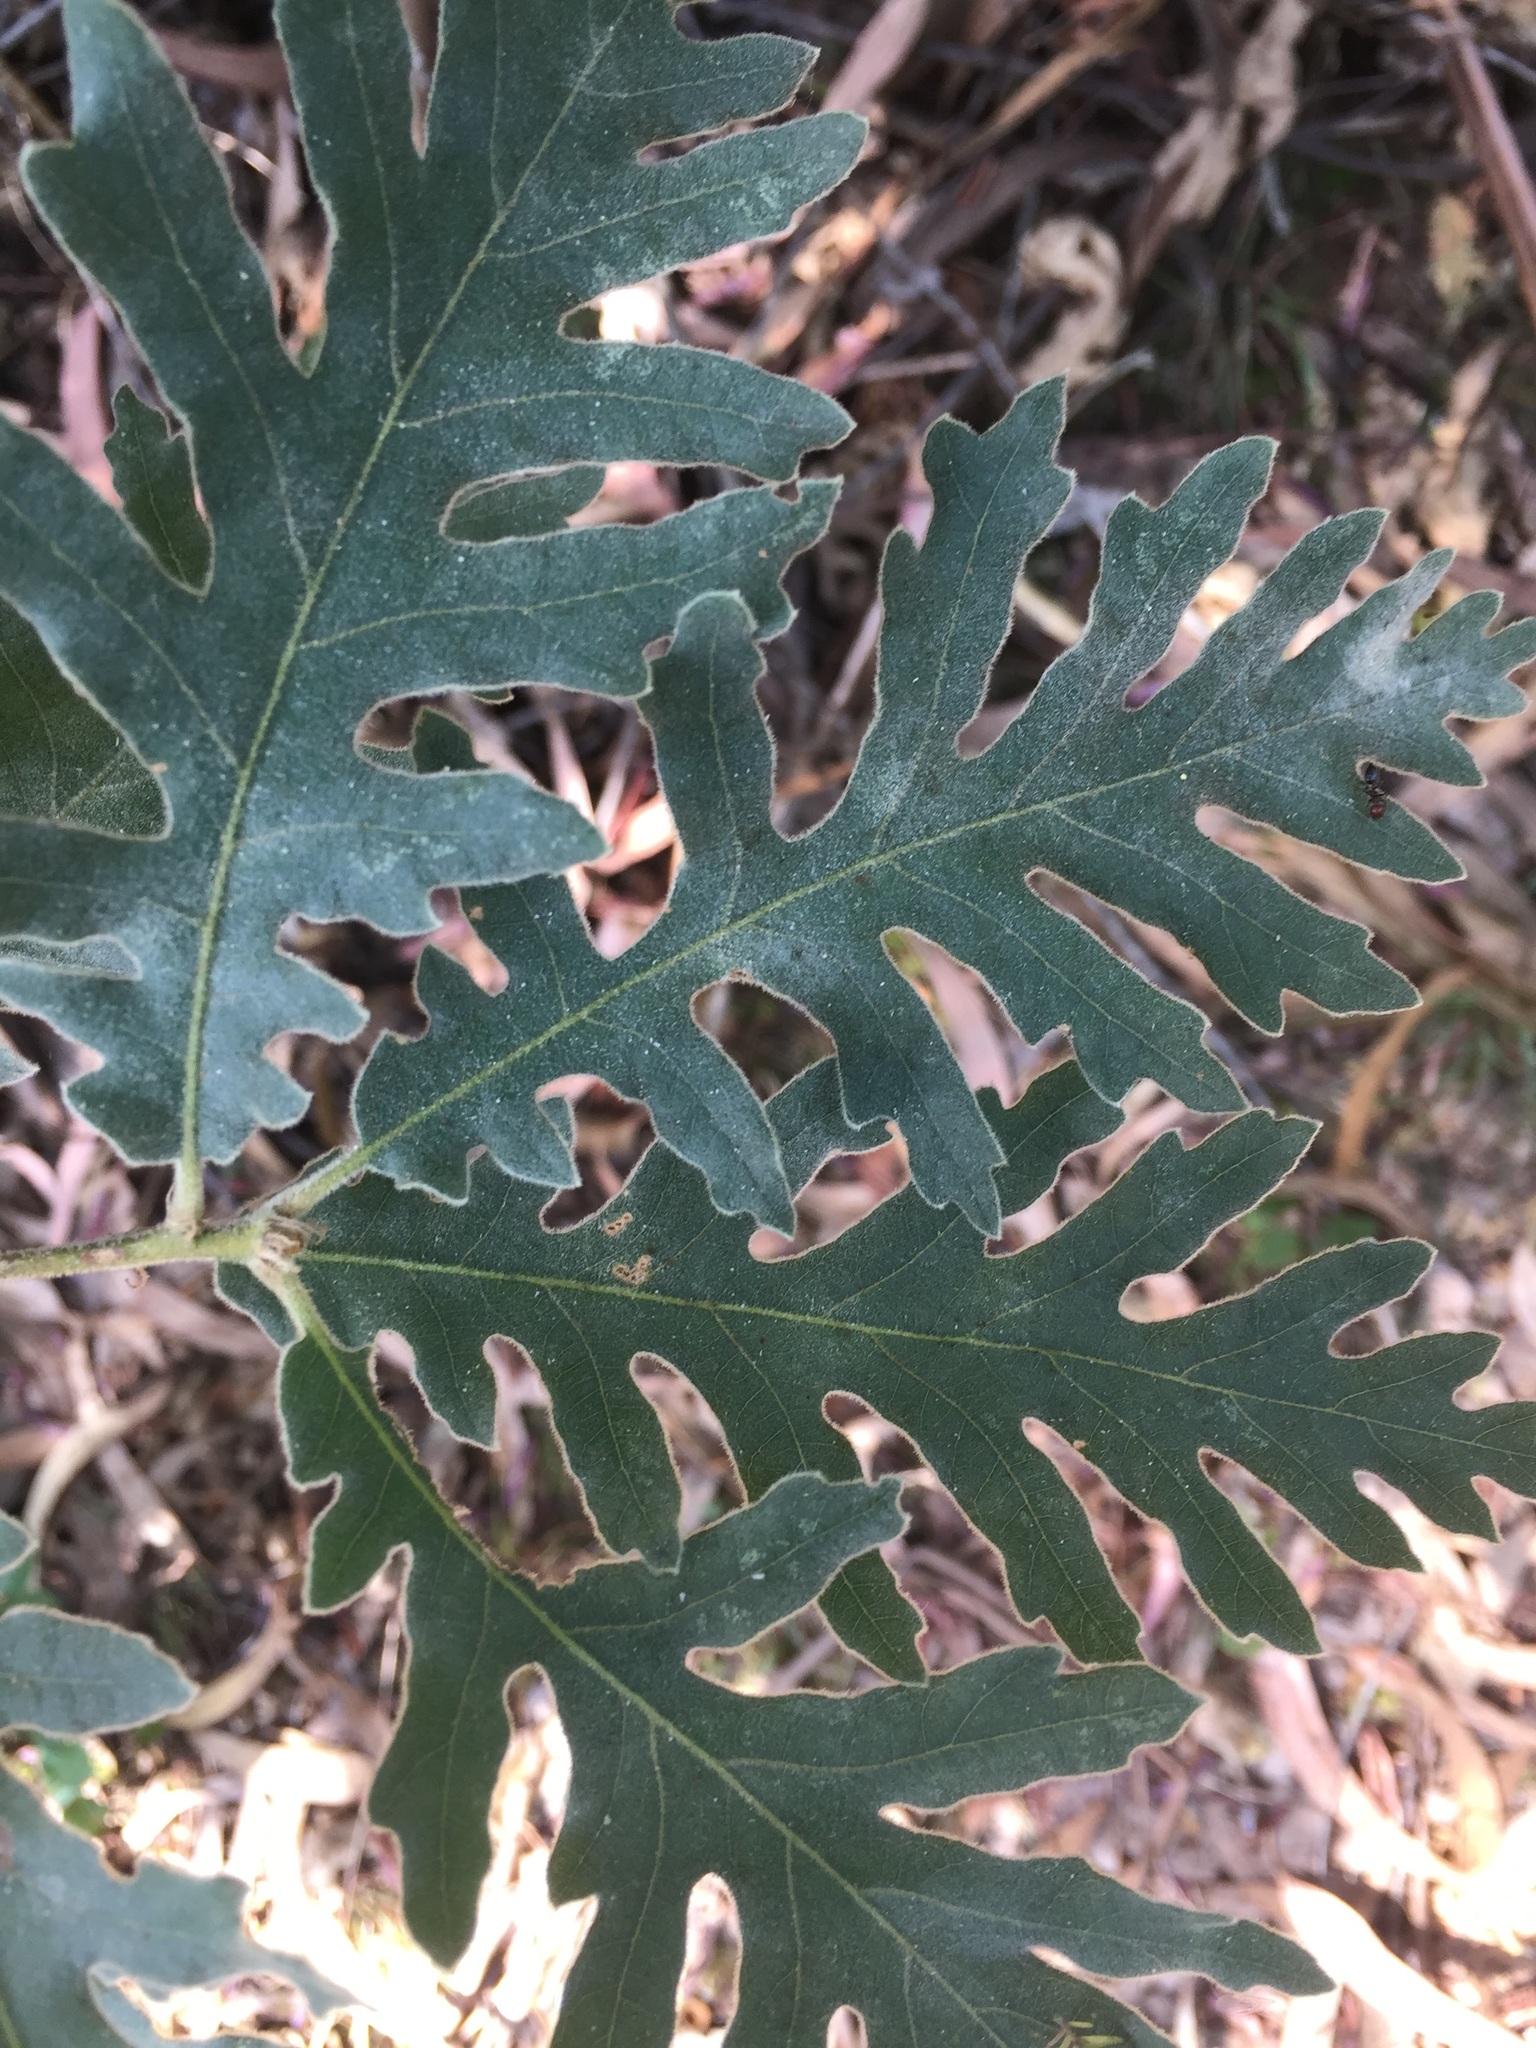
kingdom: Plantae
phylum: Tracheophyta
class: Magnoliopsida
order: Fagales
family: Fagaceae
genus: Quercus
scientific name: Quercus pyrenaica
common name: Pyrenean oak
